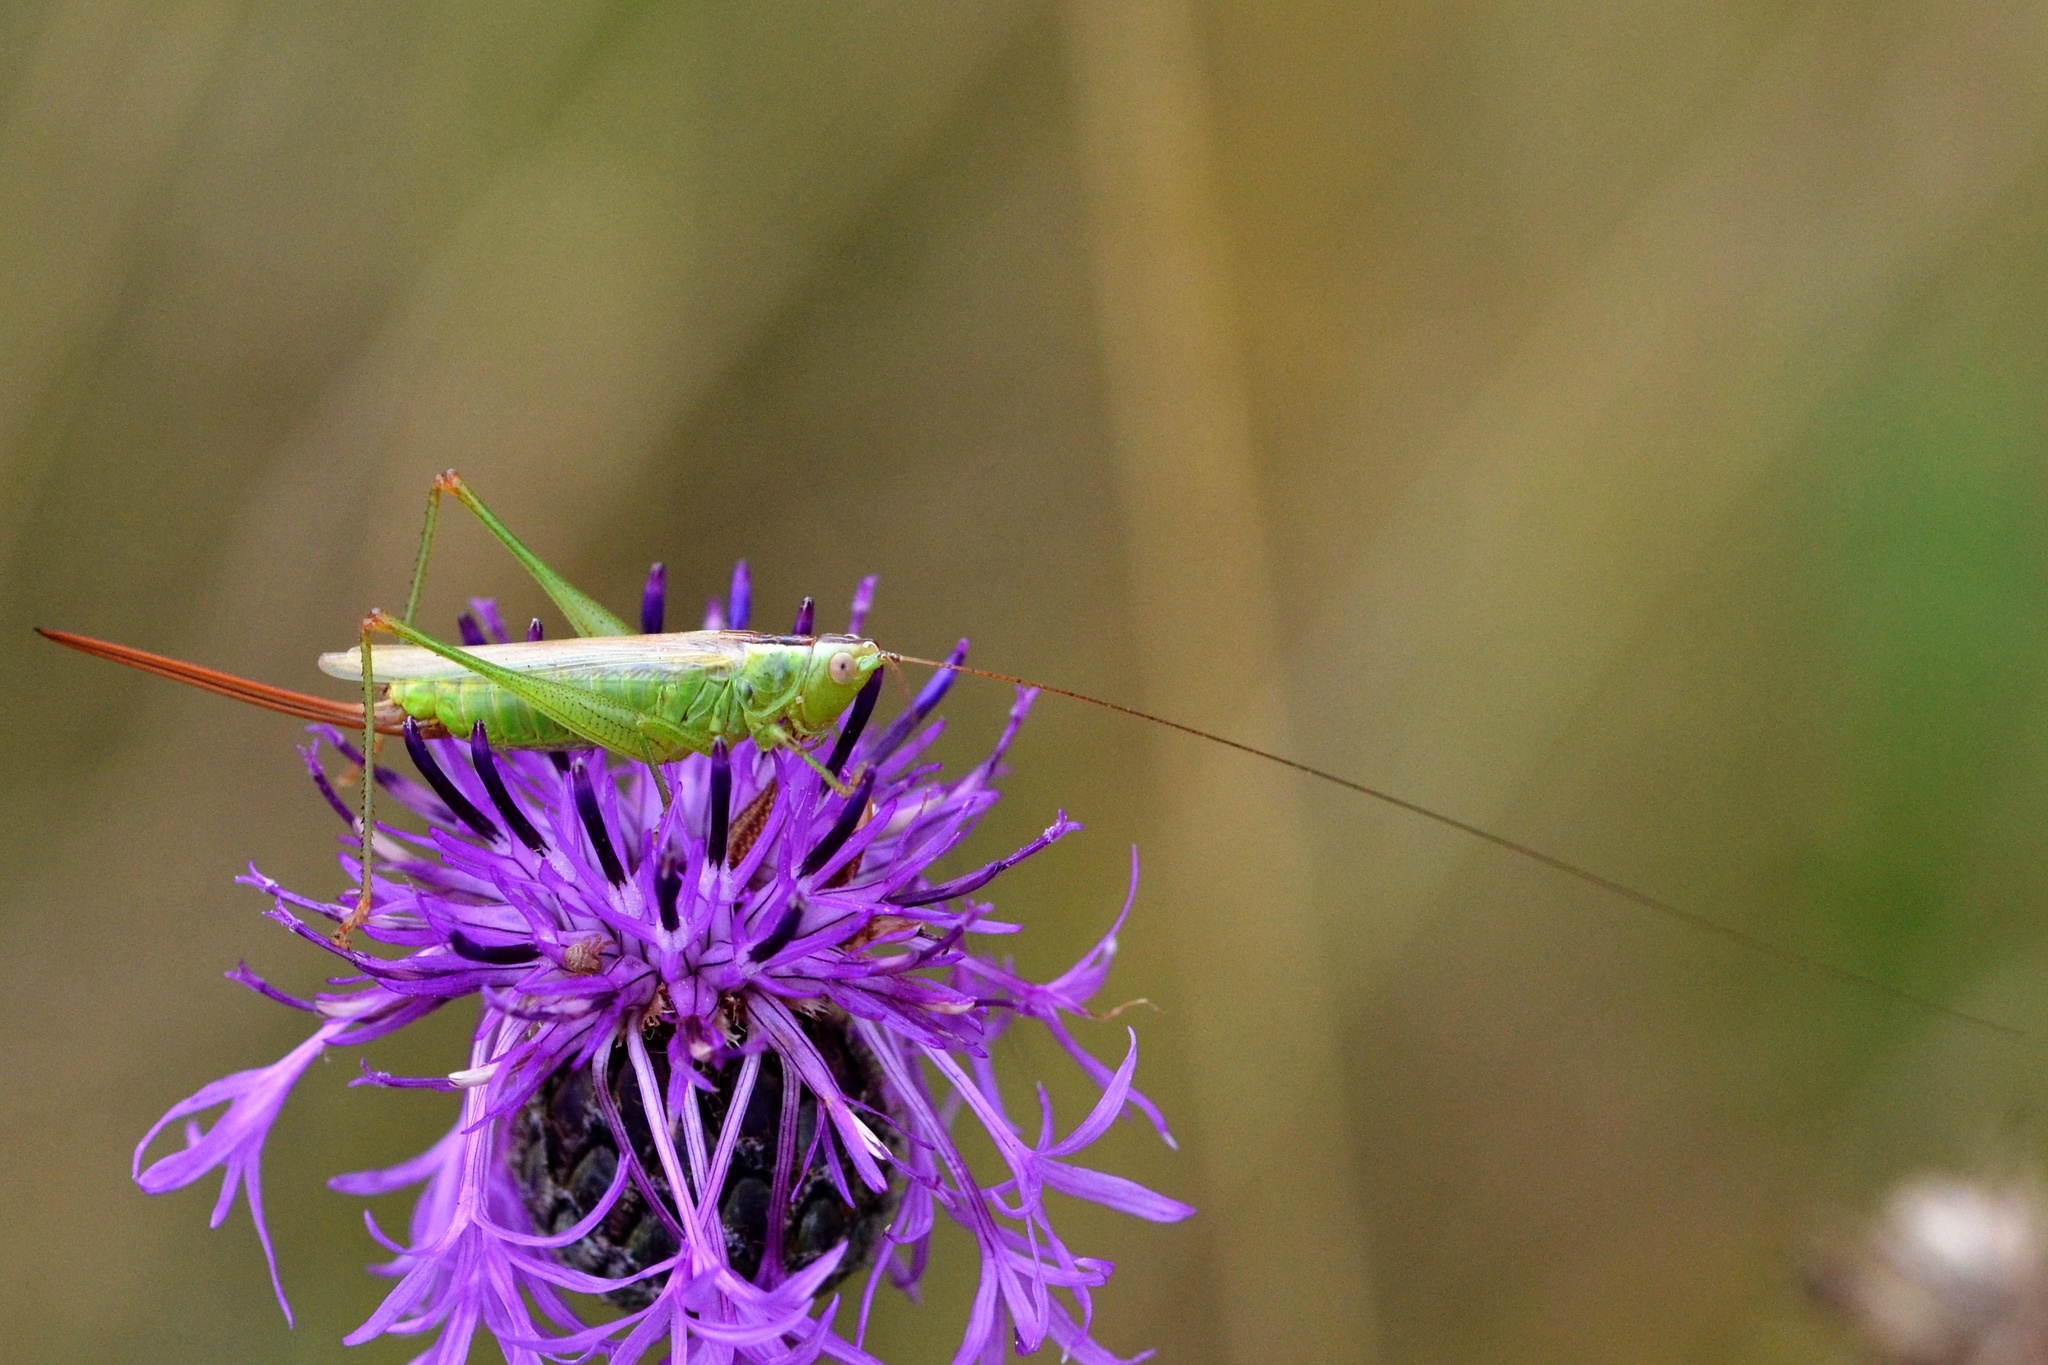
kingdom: Animalia
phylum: Arthropoda
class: Insecta
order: Orthoptera
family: Tettigoniidae
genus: Conocephalus
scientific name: Conocephalus fuscus
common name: Long-winged conehead
